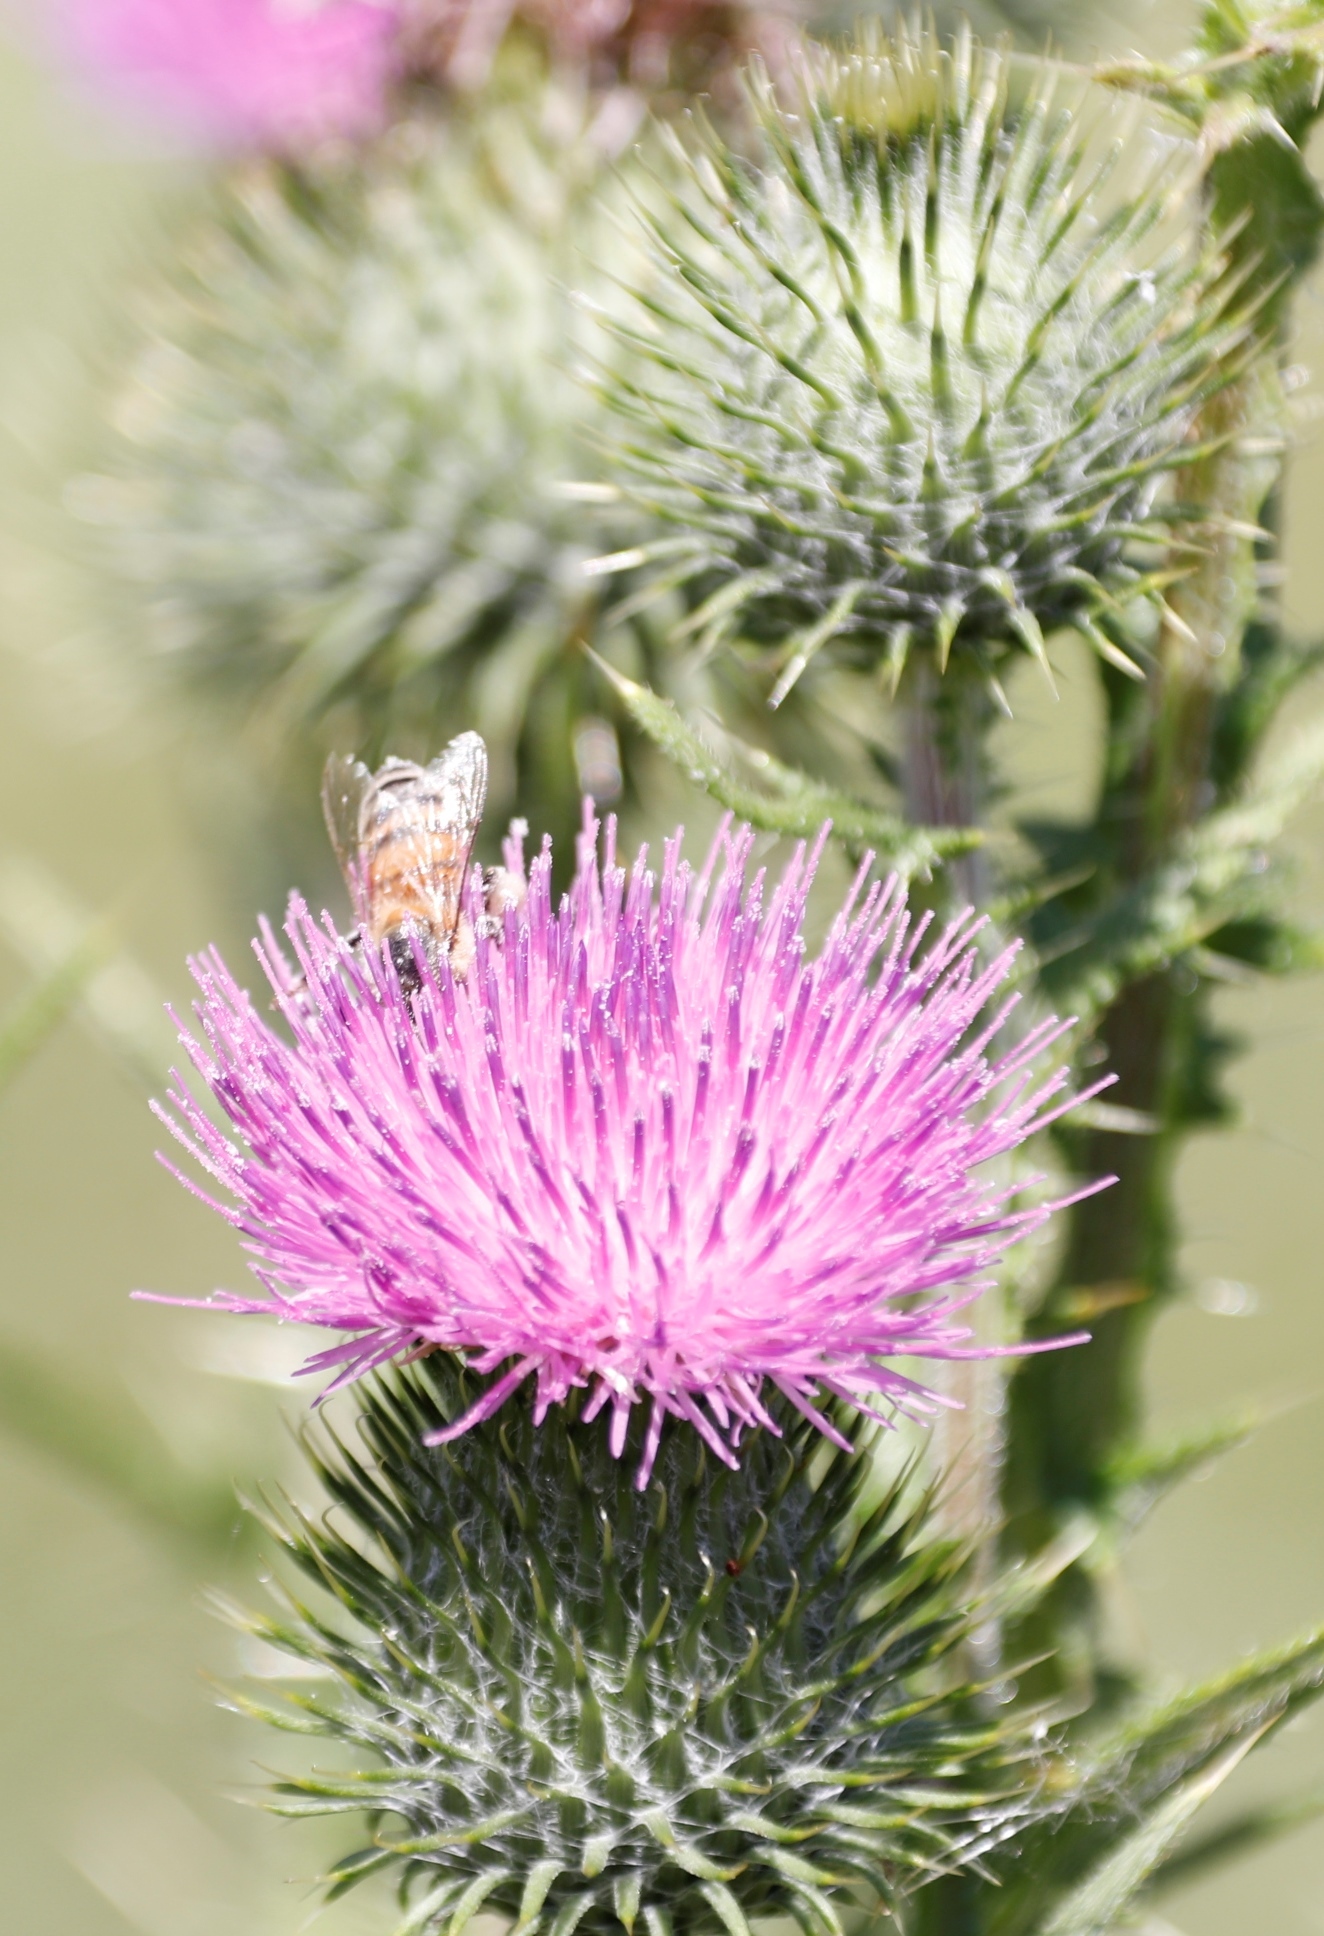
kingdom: Animalia
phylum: Arthropoda
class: Insecta
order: Hymenoptera
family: Apidae
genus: Apis
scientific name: Apis mellifera
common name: Honey bee
